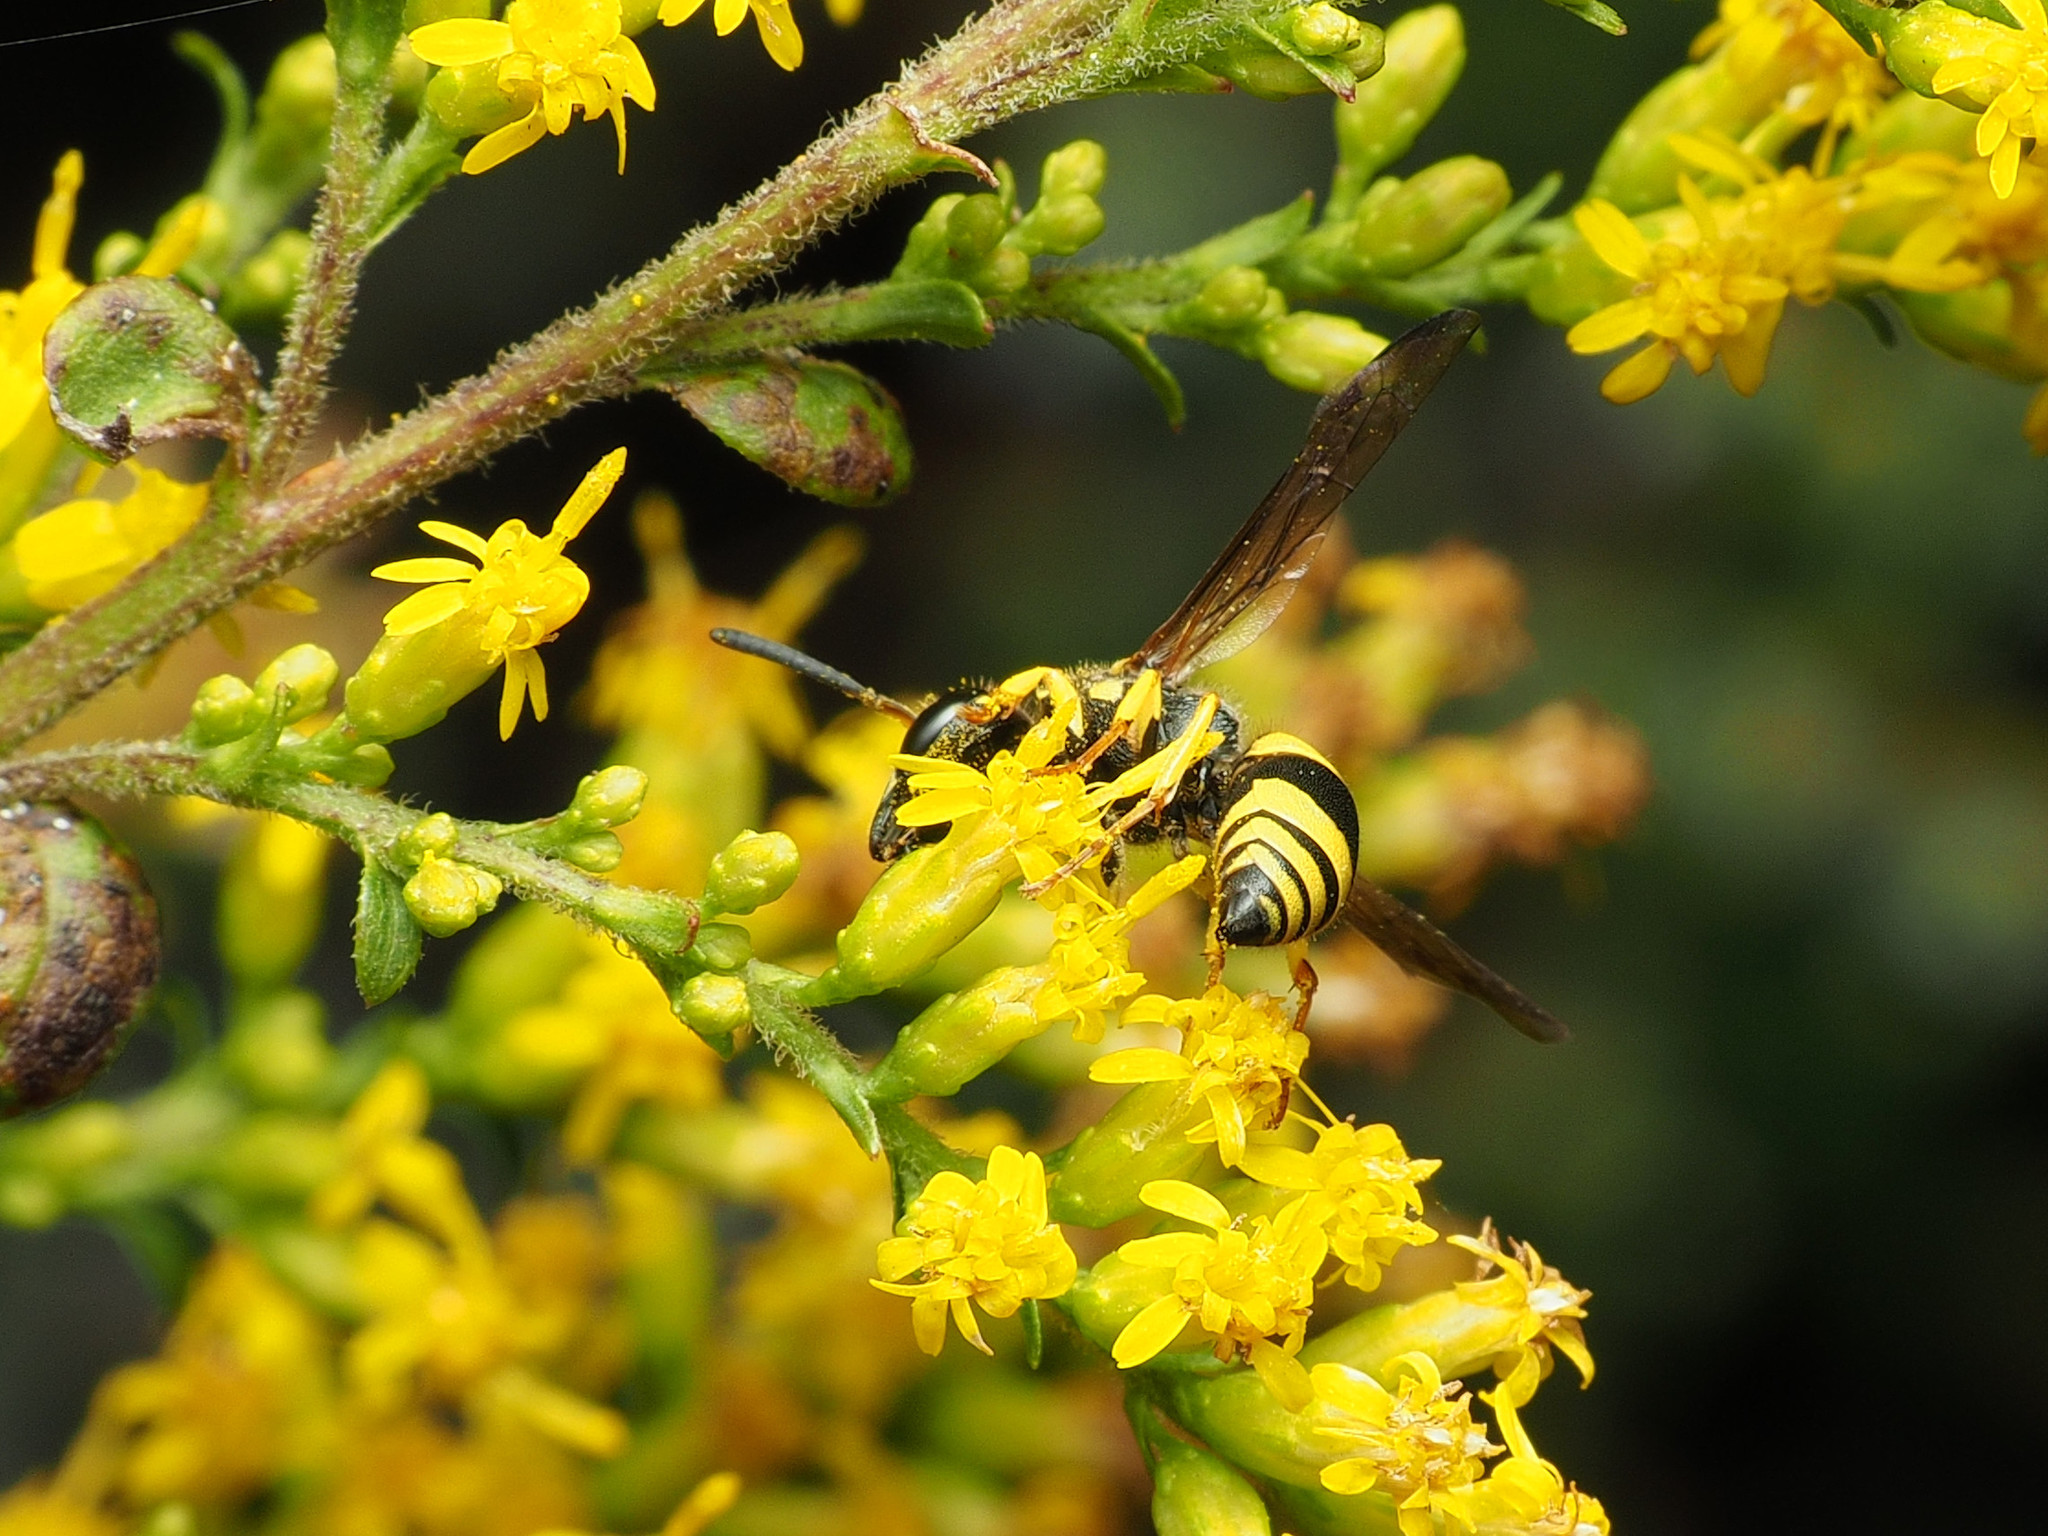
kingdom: Animalia
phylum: Arthropoda
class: Insecta
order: Hymenoptera
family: Vespidae
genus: Ancistrocerus
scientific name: Ancistrocerus gazella
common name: European tube wasp
